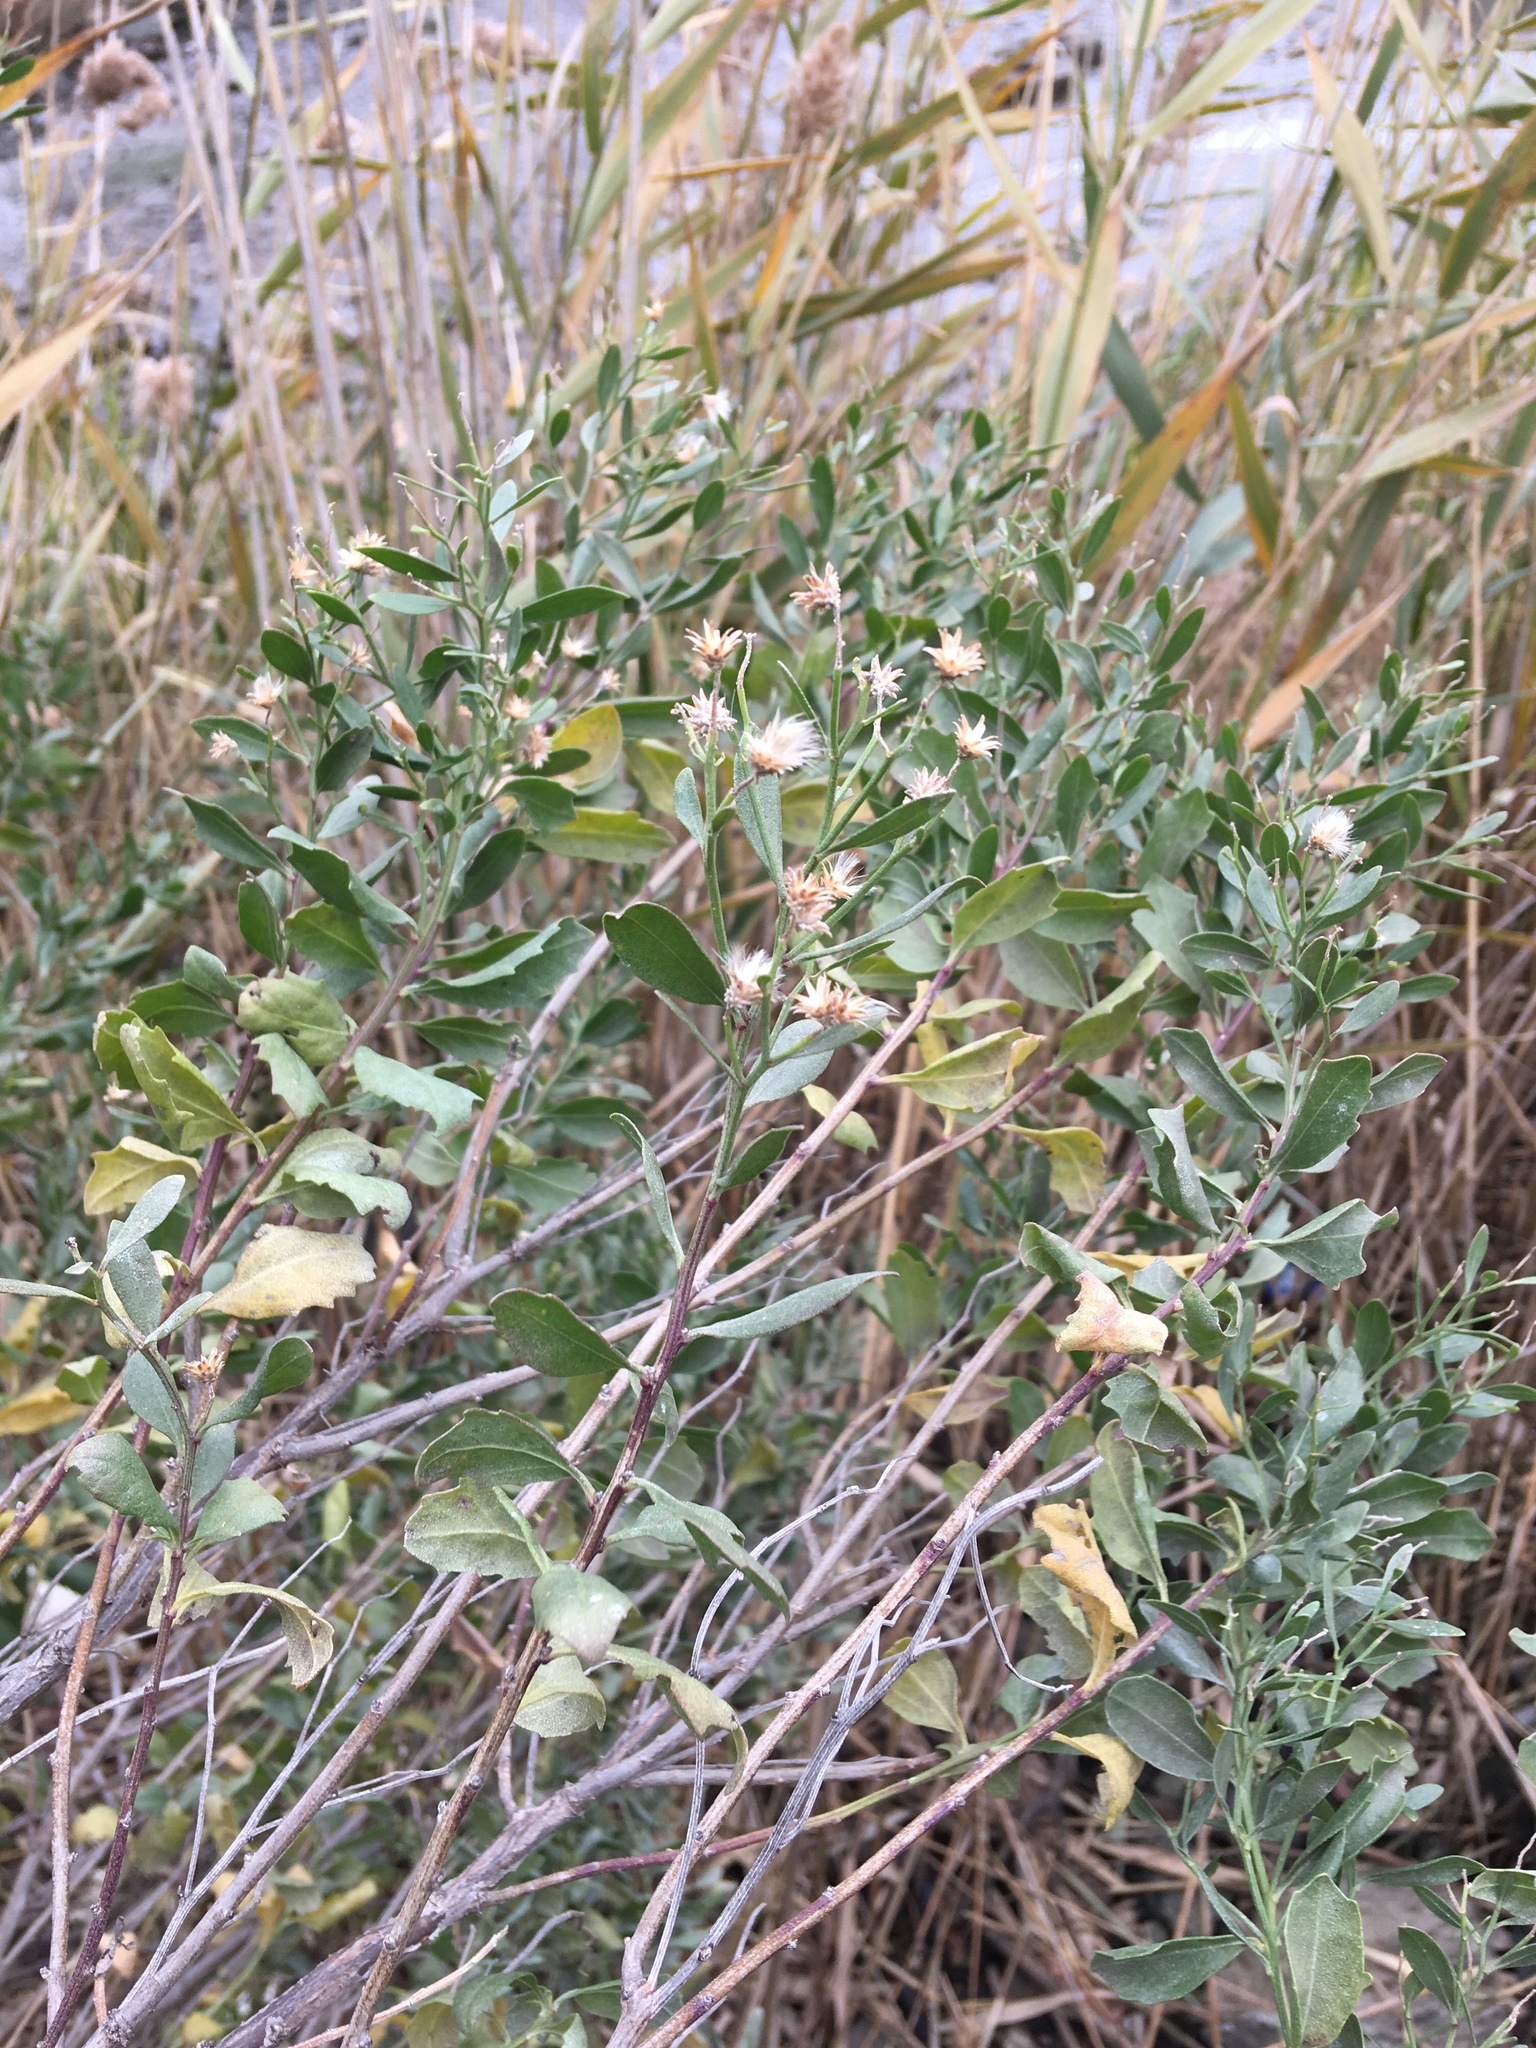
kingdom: Plantae
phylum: Tracheophyta
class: Magnoliopsida
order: Asterales
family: Asteraceae
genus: Baccharis
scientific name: Baccharis halimifolia
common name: Eastern baccharis
